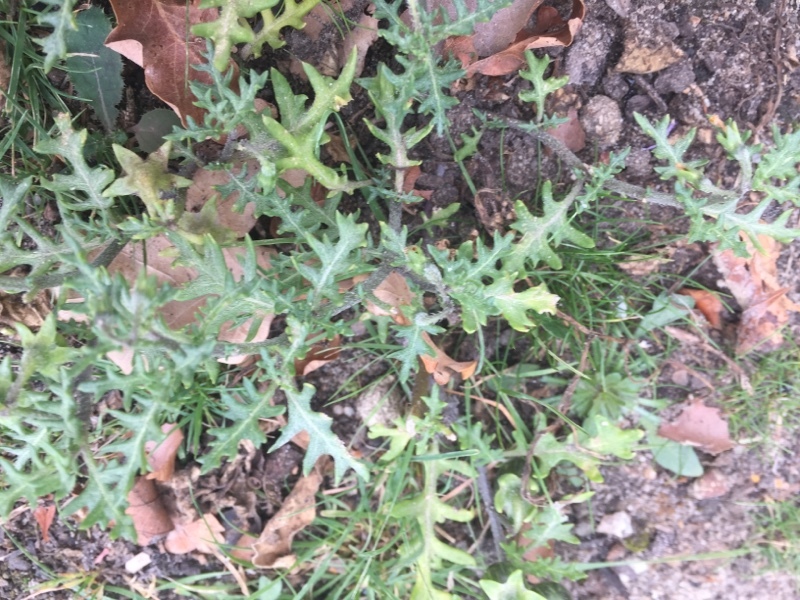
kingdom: Plantae
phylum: Tracheophyta
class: Magnoliopsida
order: Solanales
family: Solanaceae
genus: Solanum
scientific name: Solanum triflorum
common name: Small nightshade
